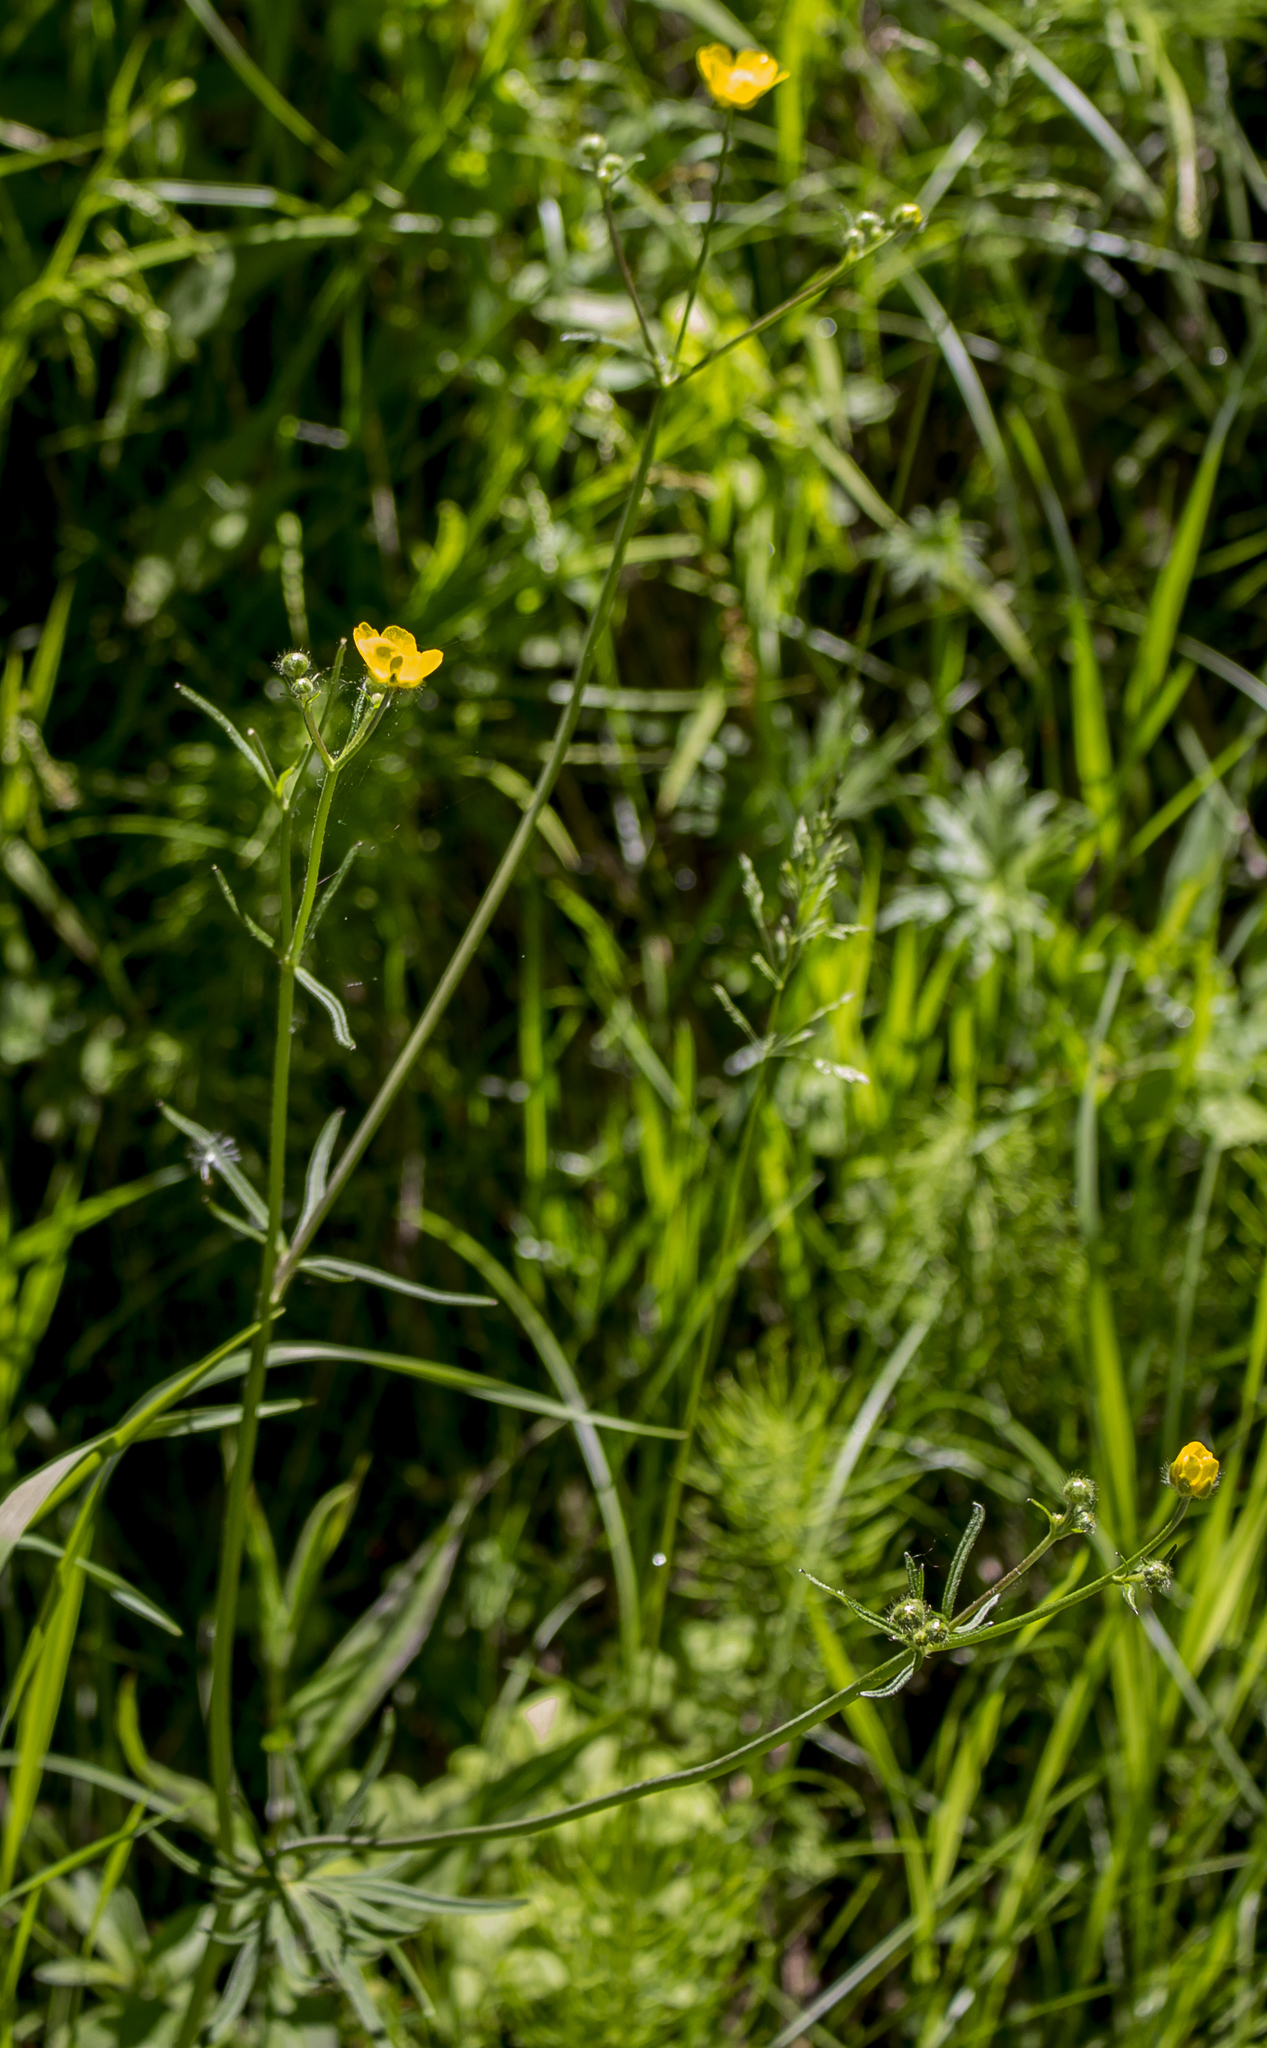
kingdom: Plantae
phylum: Tracheophyta
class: Magnoliopsida
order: Ranunculales
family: Ranunculaceae
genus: Ranunculus
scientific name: Ranunculus acris
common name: Meadow buttercup
